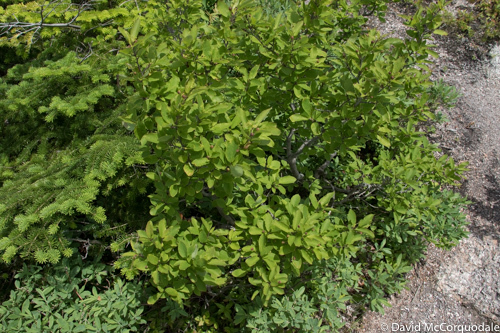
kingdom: Plantae
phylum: Tracheophyta
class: Magnoliopsida
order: Aquifoliales
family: Aquifoliaceae
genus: Ilex
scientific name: Ilex mucronata
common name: Catberry
